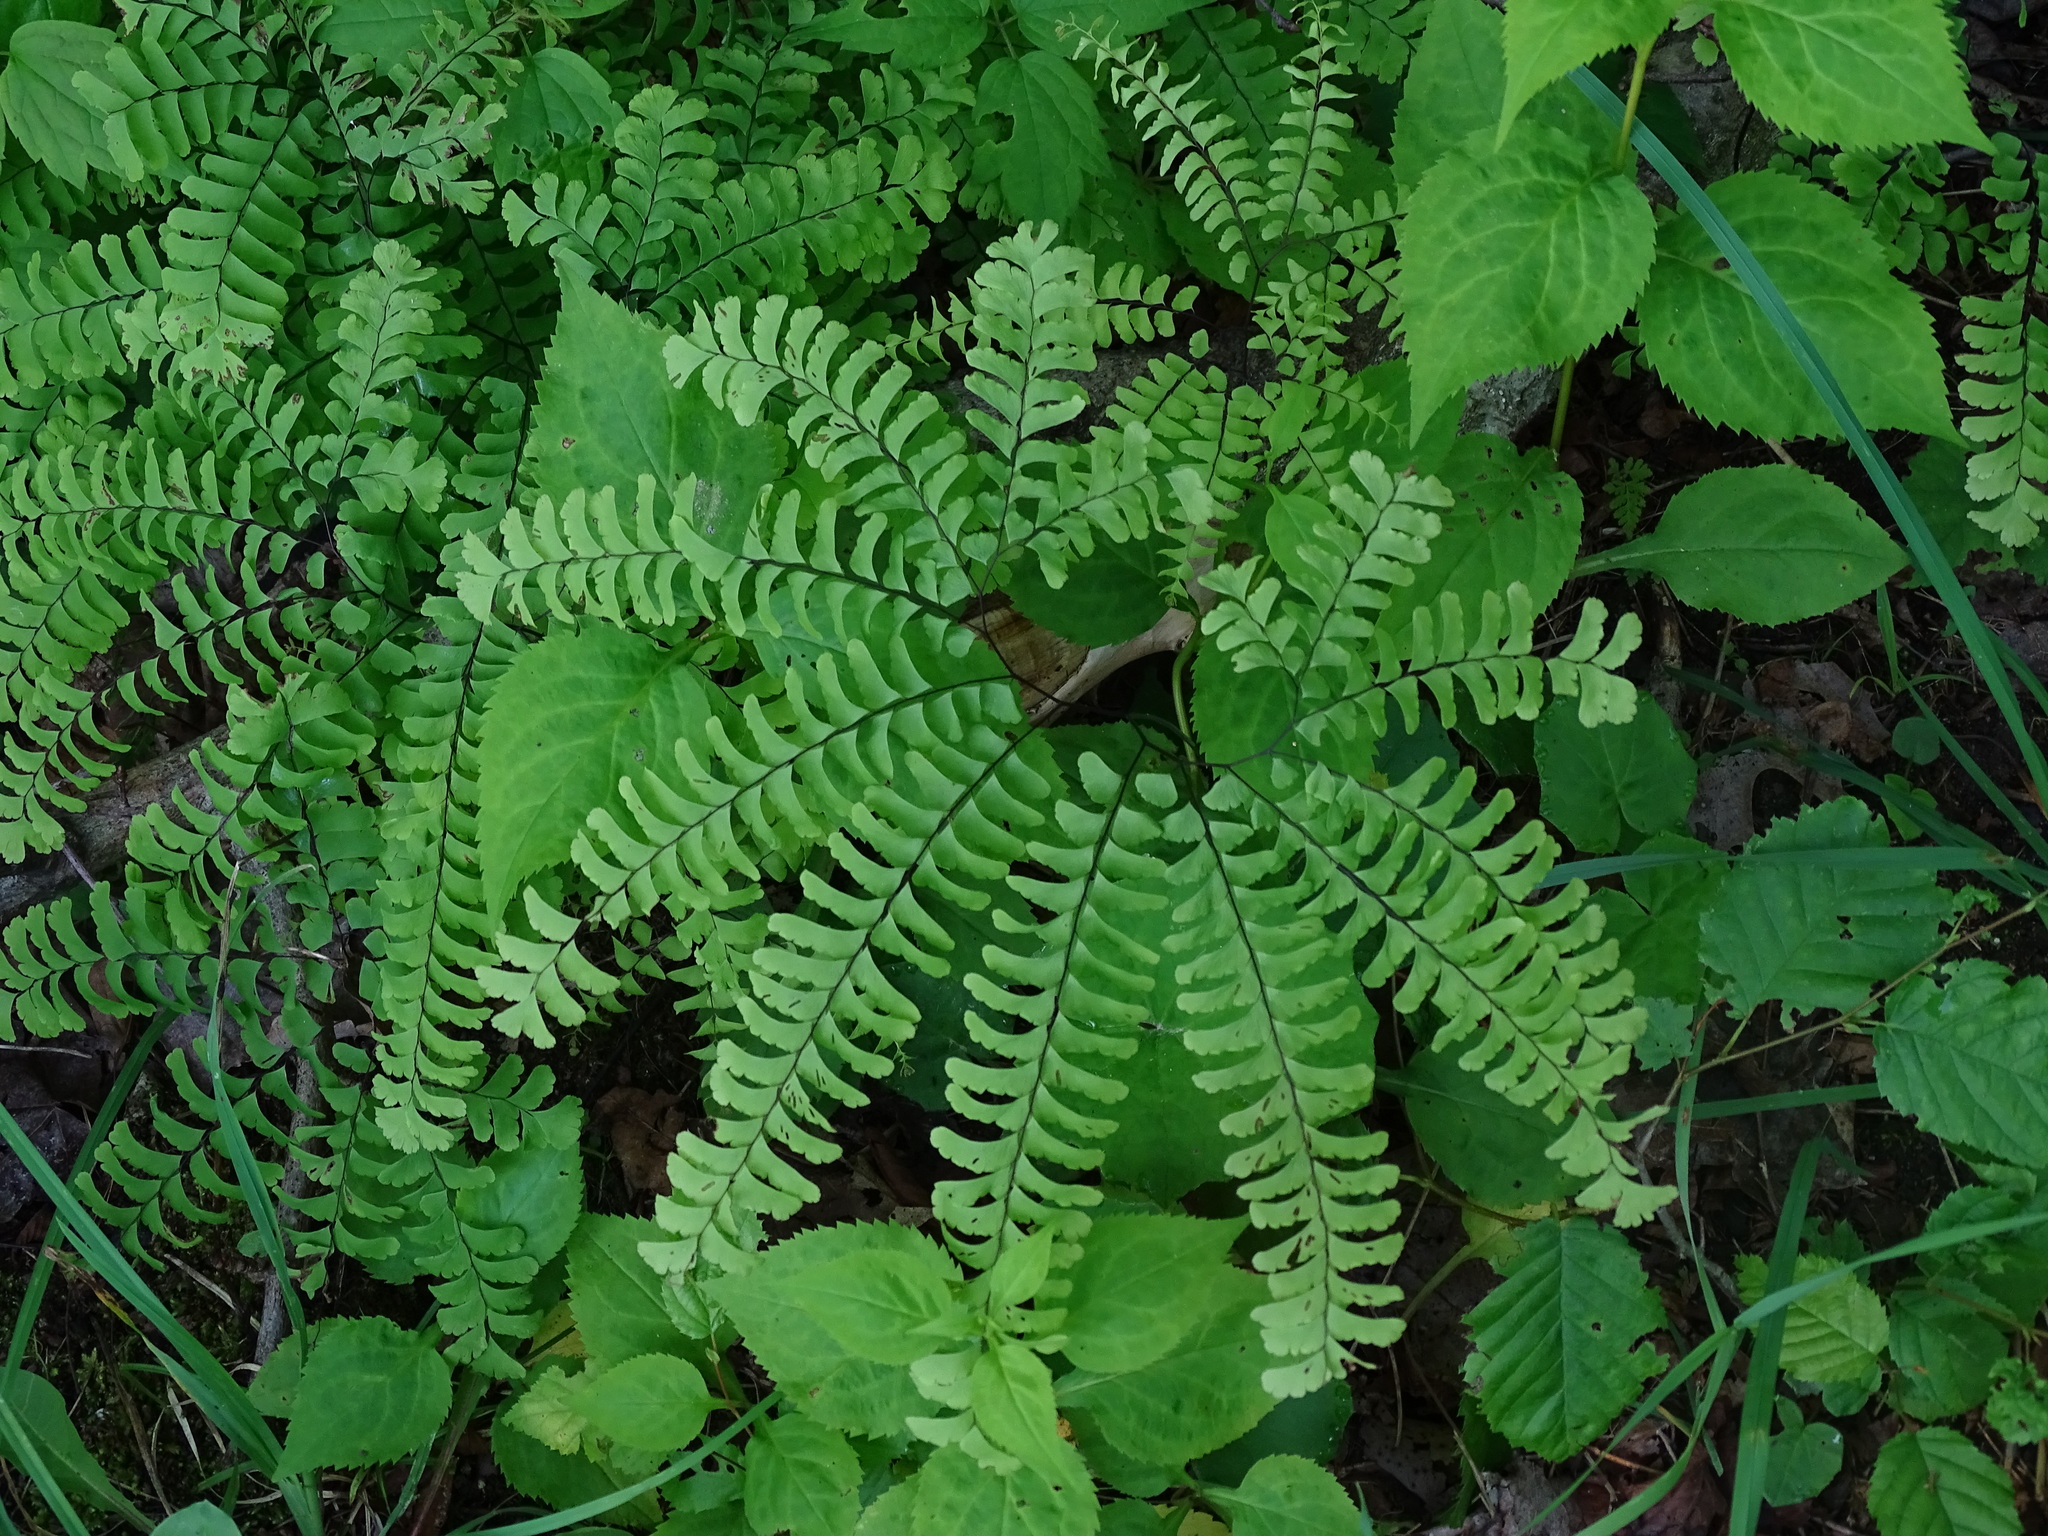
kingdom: Plantae
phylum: Tracheophyta
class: Polypodiopsida
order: Polypodiales
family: Pteridaceae
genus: Adiantum
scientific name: Adiantum pedatum
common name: Five-finger fern
